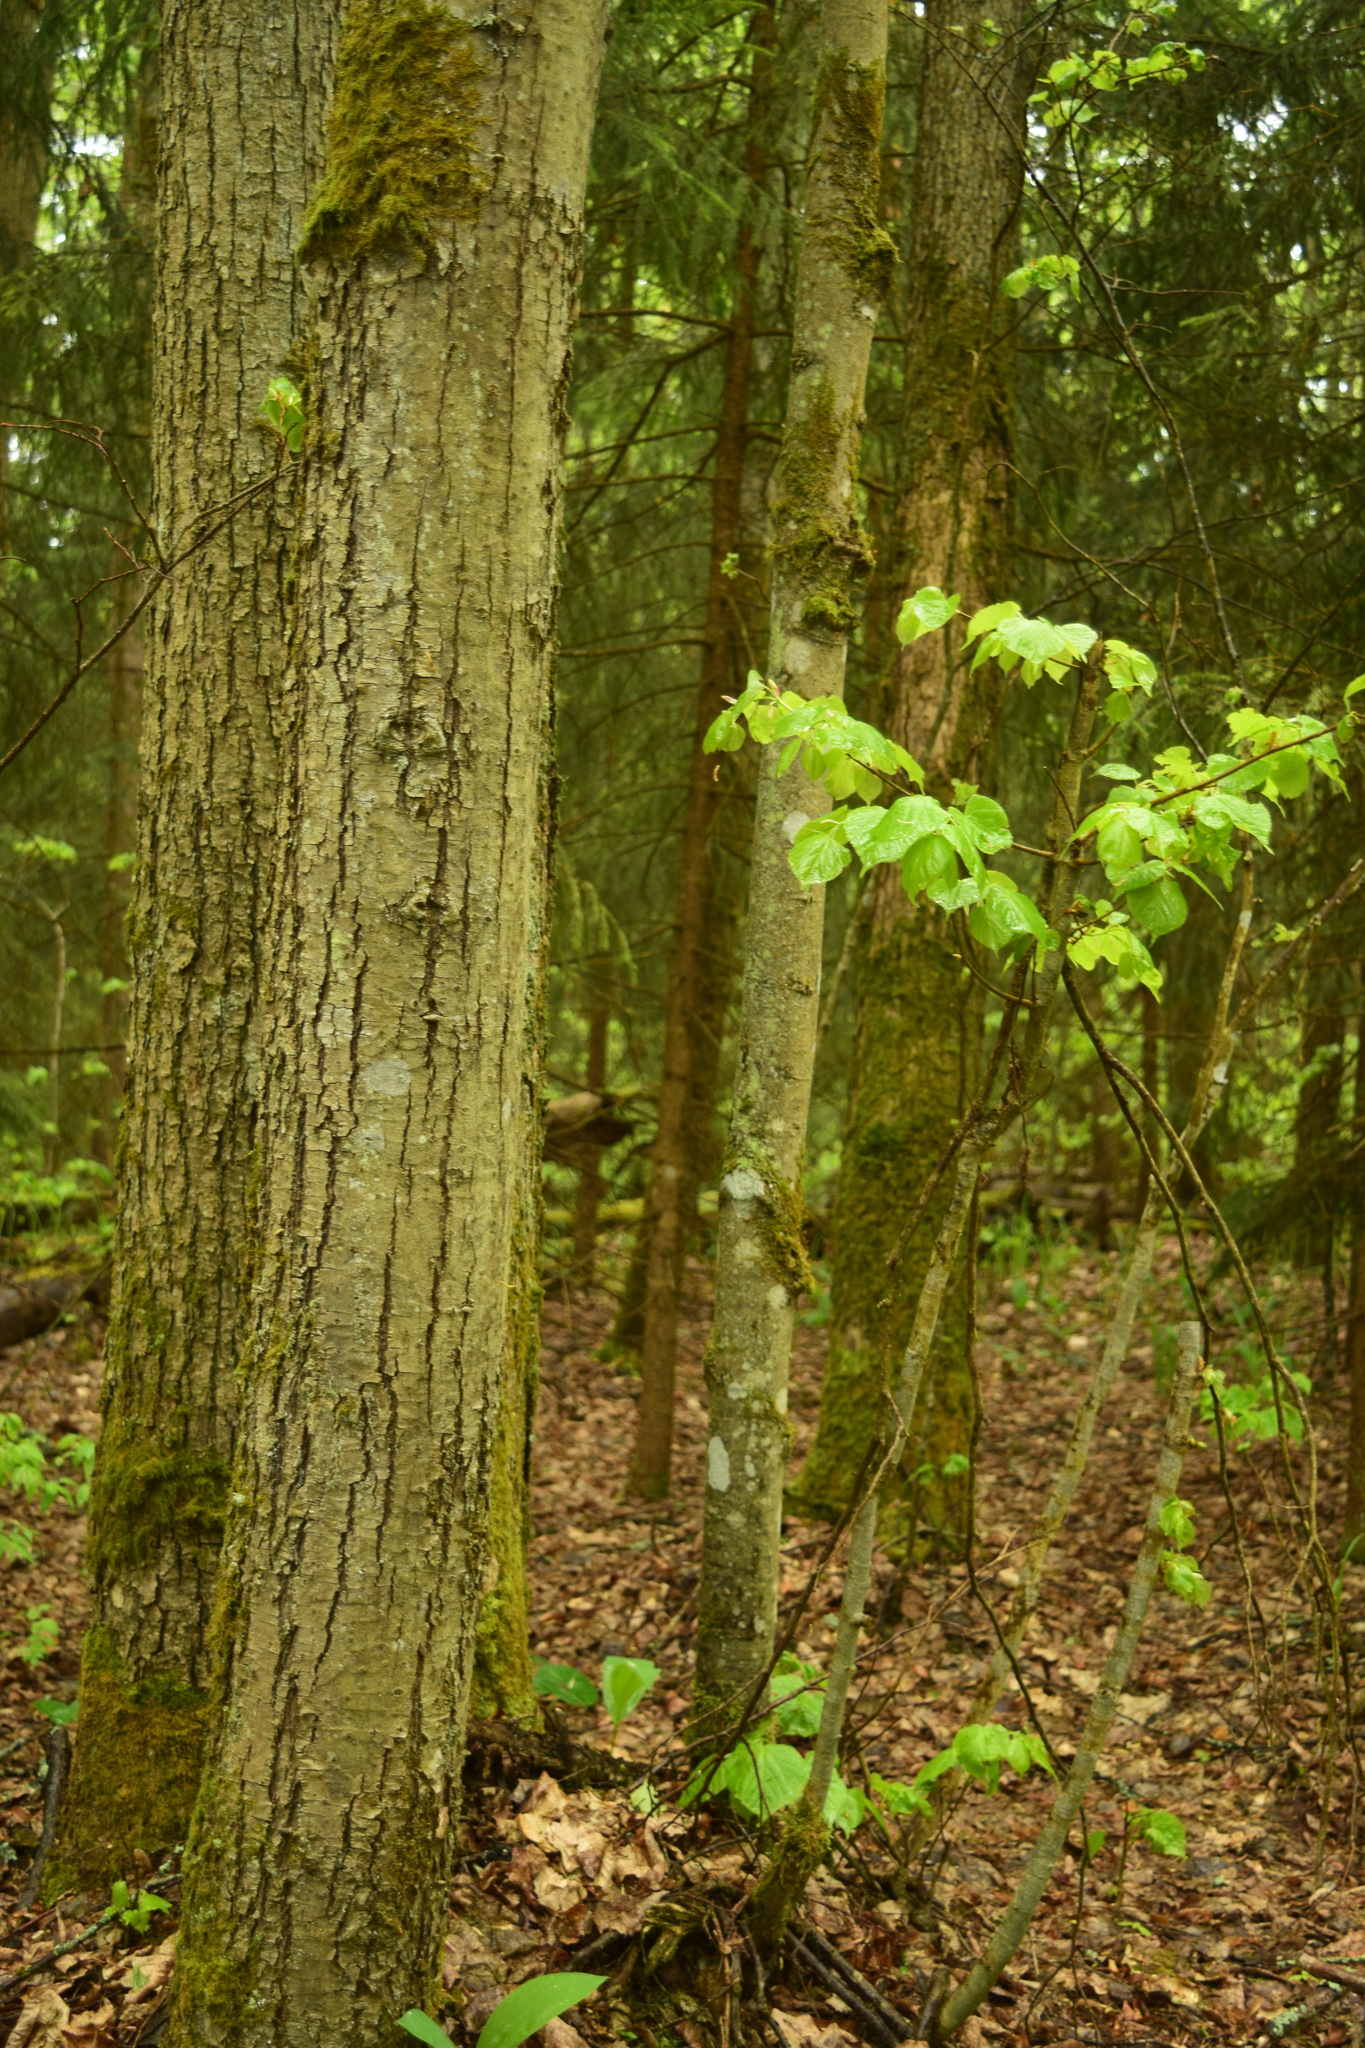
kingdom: Plantae
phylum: Tracheophyta
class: Magnoliopsida
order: Malvales
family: Malvaceae
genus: Tilia
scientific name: Tilia cordata
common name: Small-leaved lime
